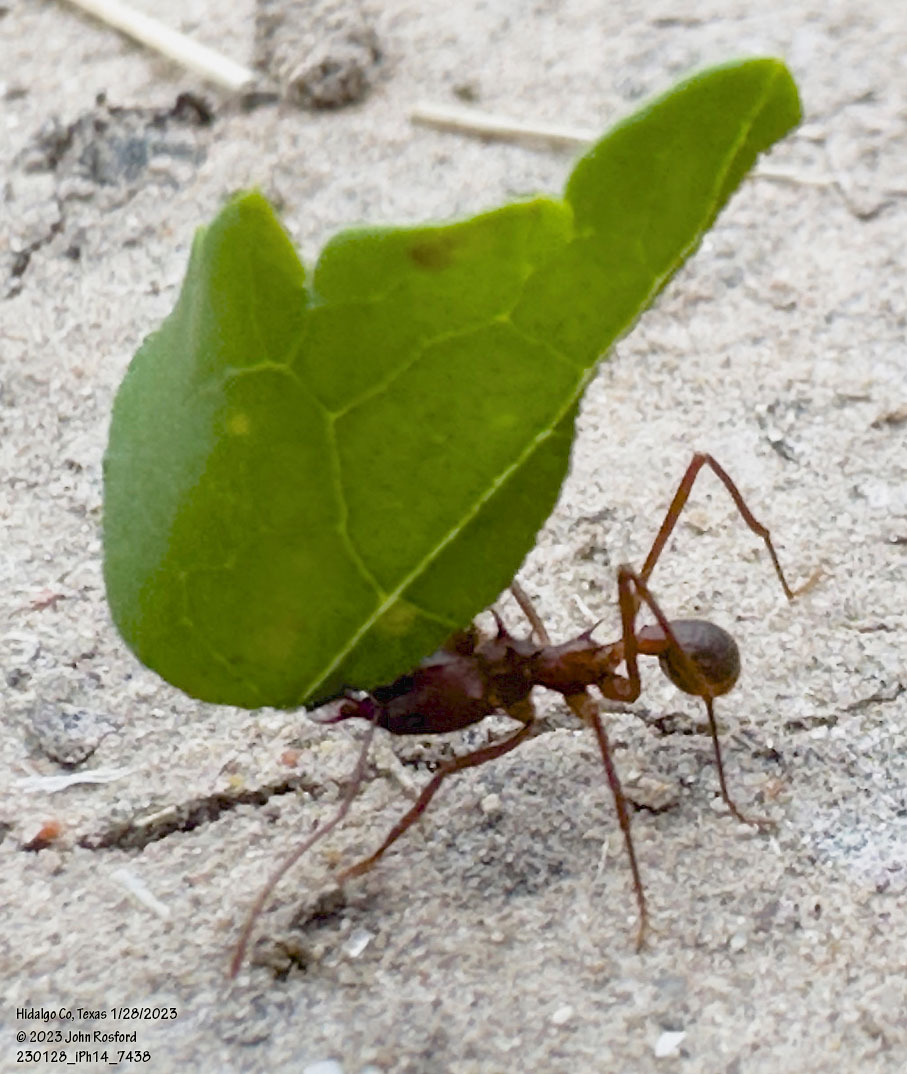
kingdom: Animalia
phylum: Arthropoda
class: Insecta
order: Hymenoptera
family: Formicidae
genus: Atta
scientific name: Atta texana
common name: Texas leafcutting ant
